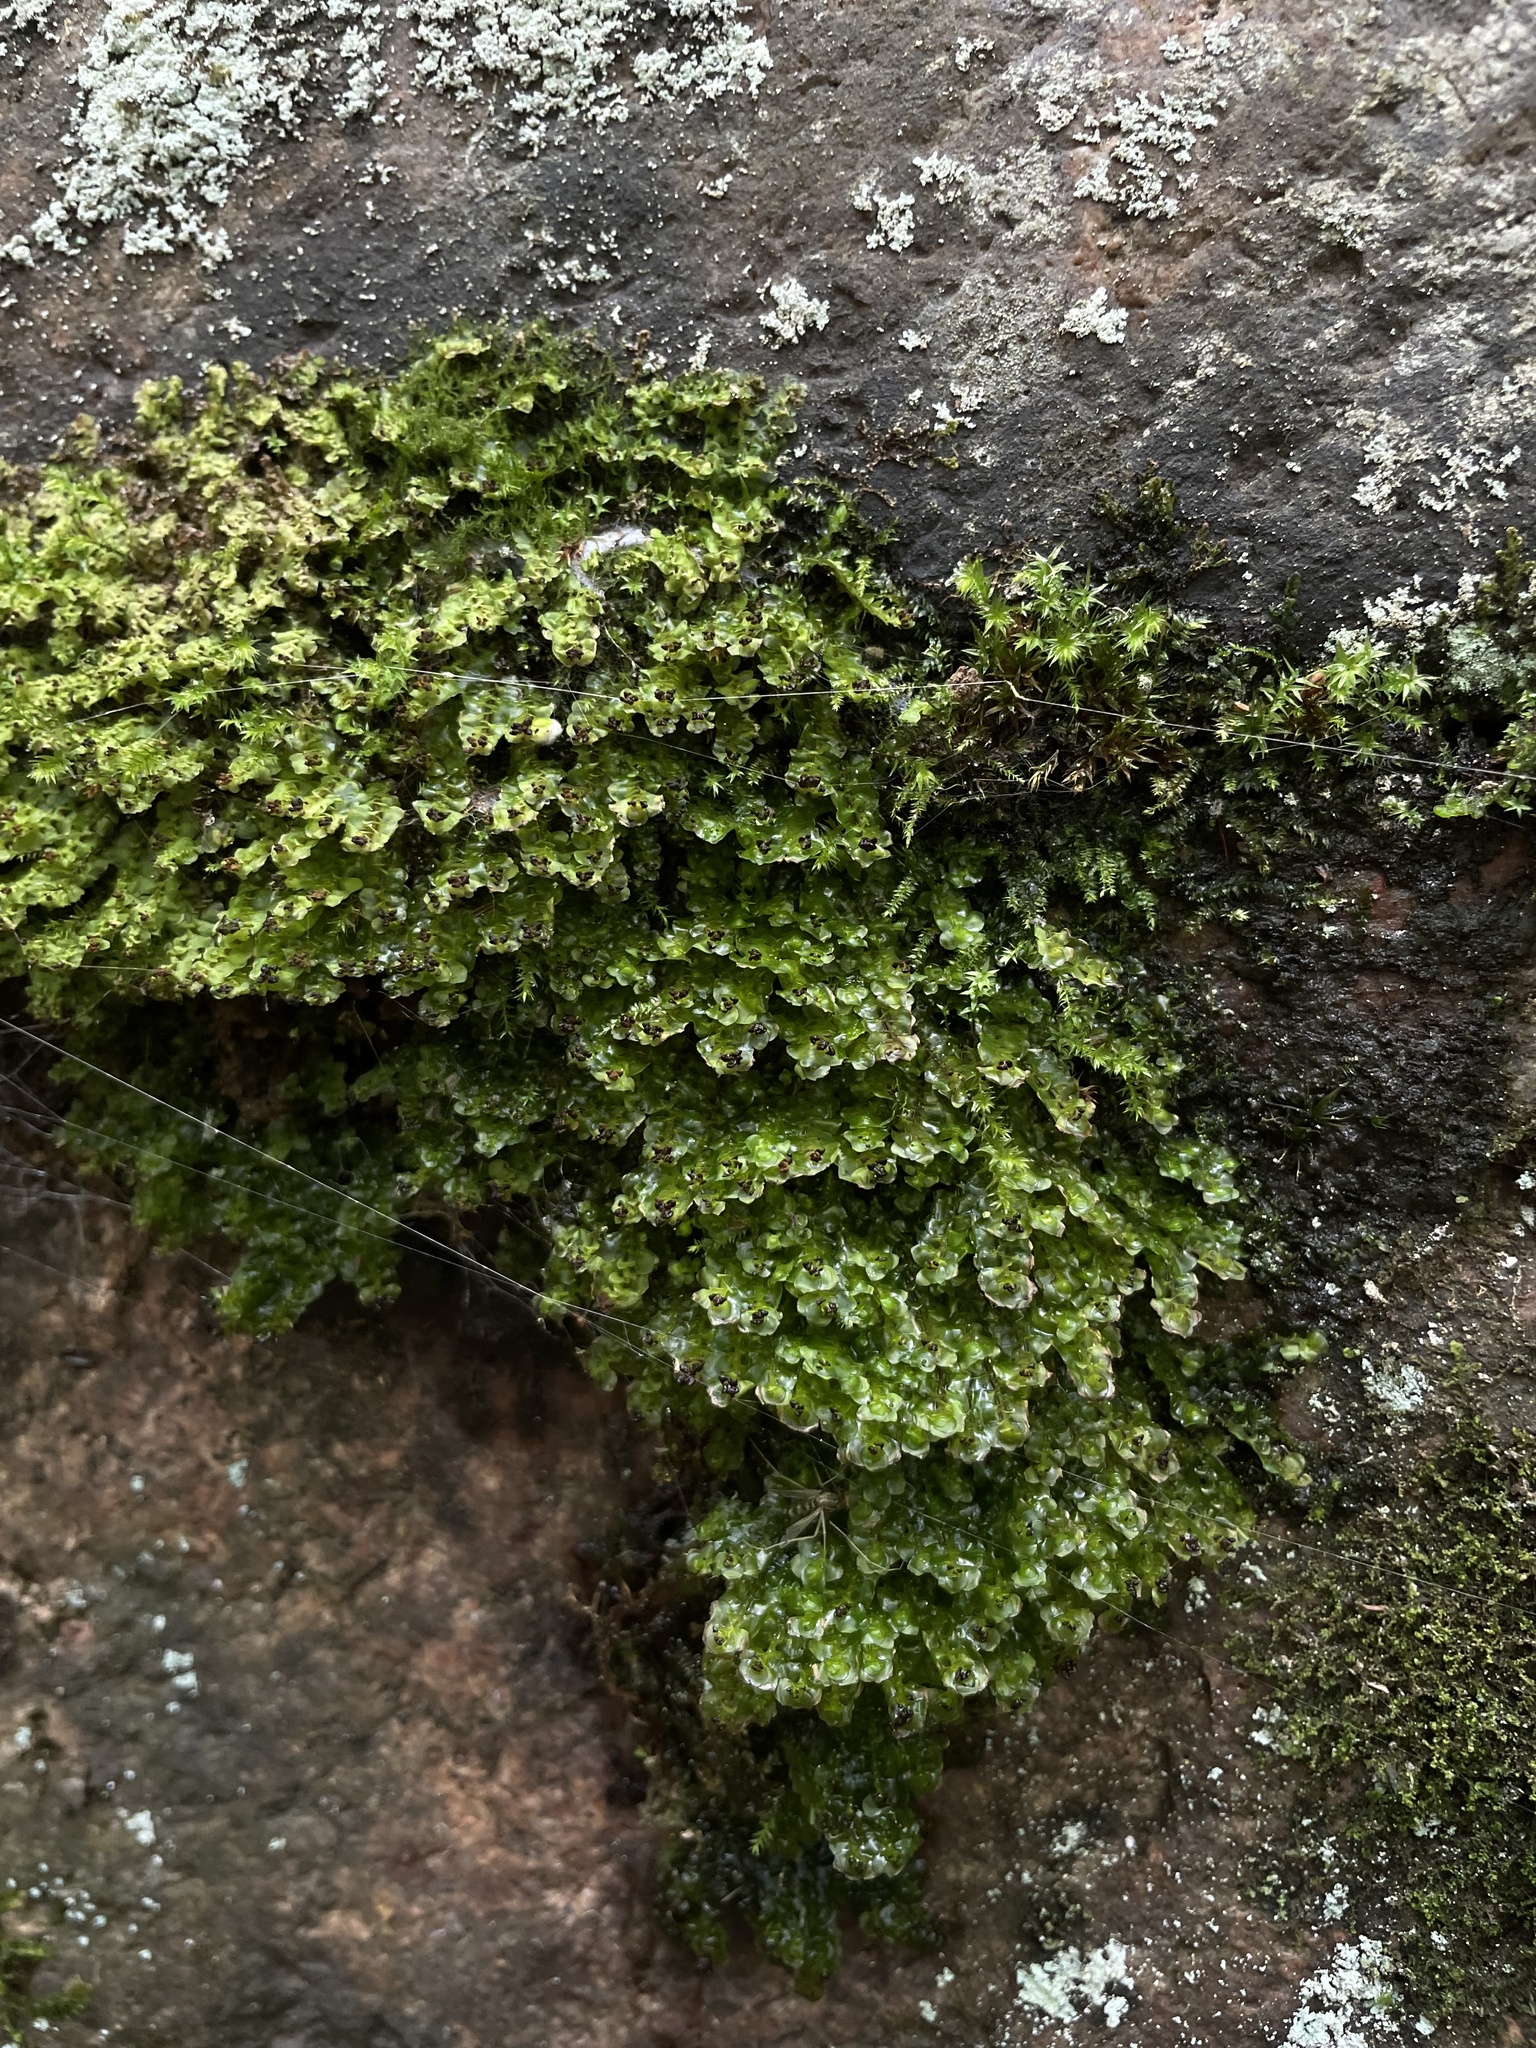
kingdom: Plantae
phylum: Marchantiophyta
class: Jungermanniopsida
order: Jungermanniales
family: Scapaniaceae
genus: Scapania
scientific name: Scapania nemorea
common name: Grove earwort
